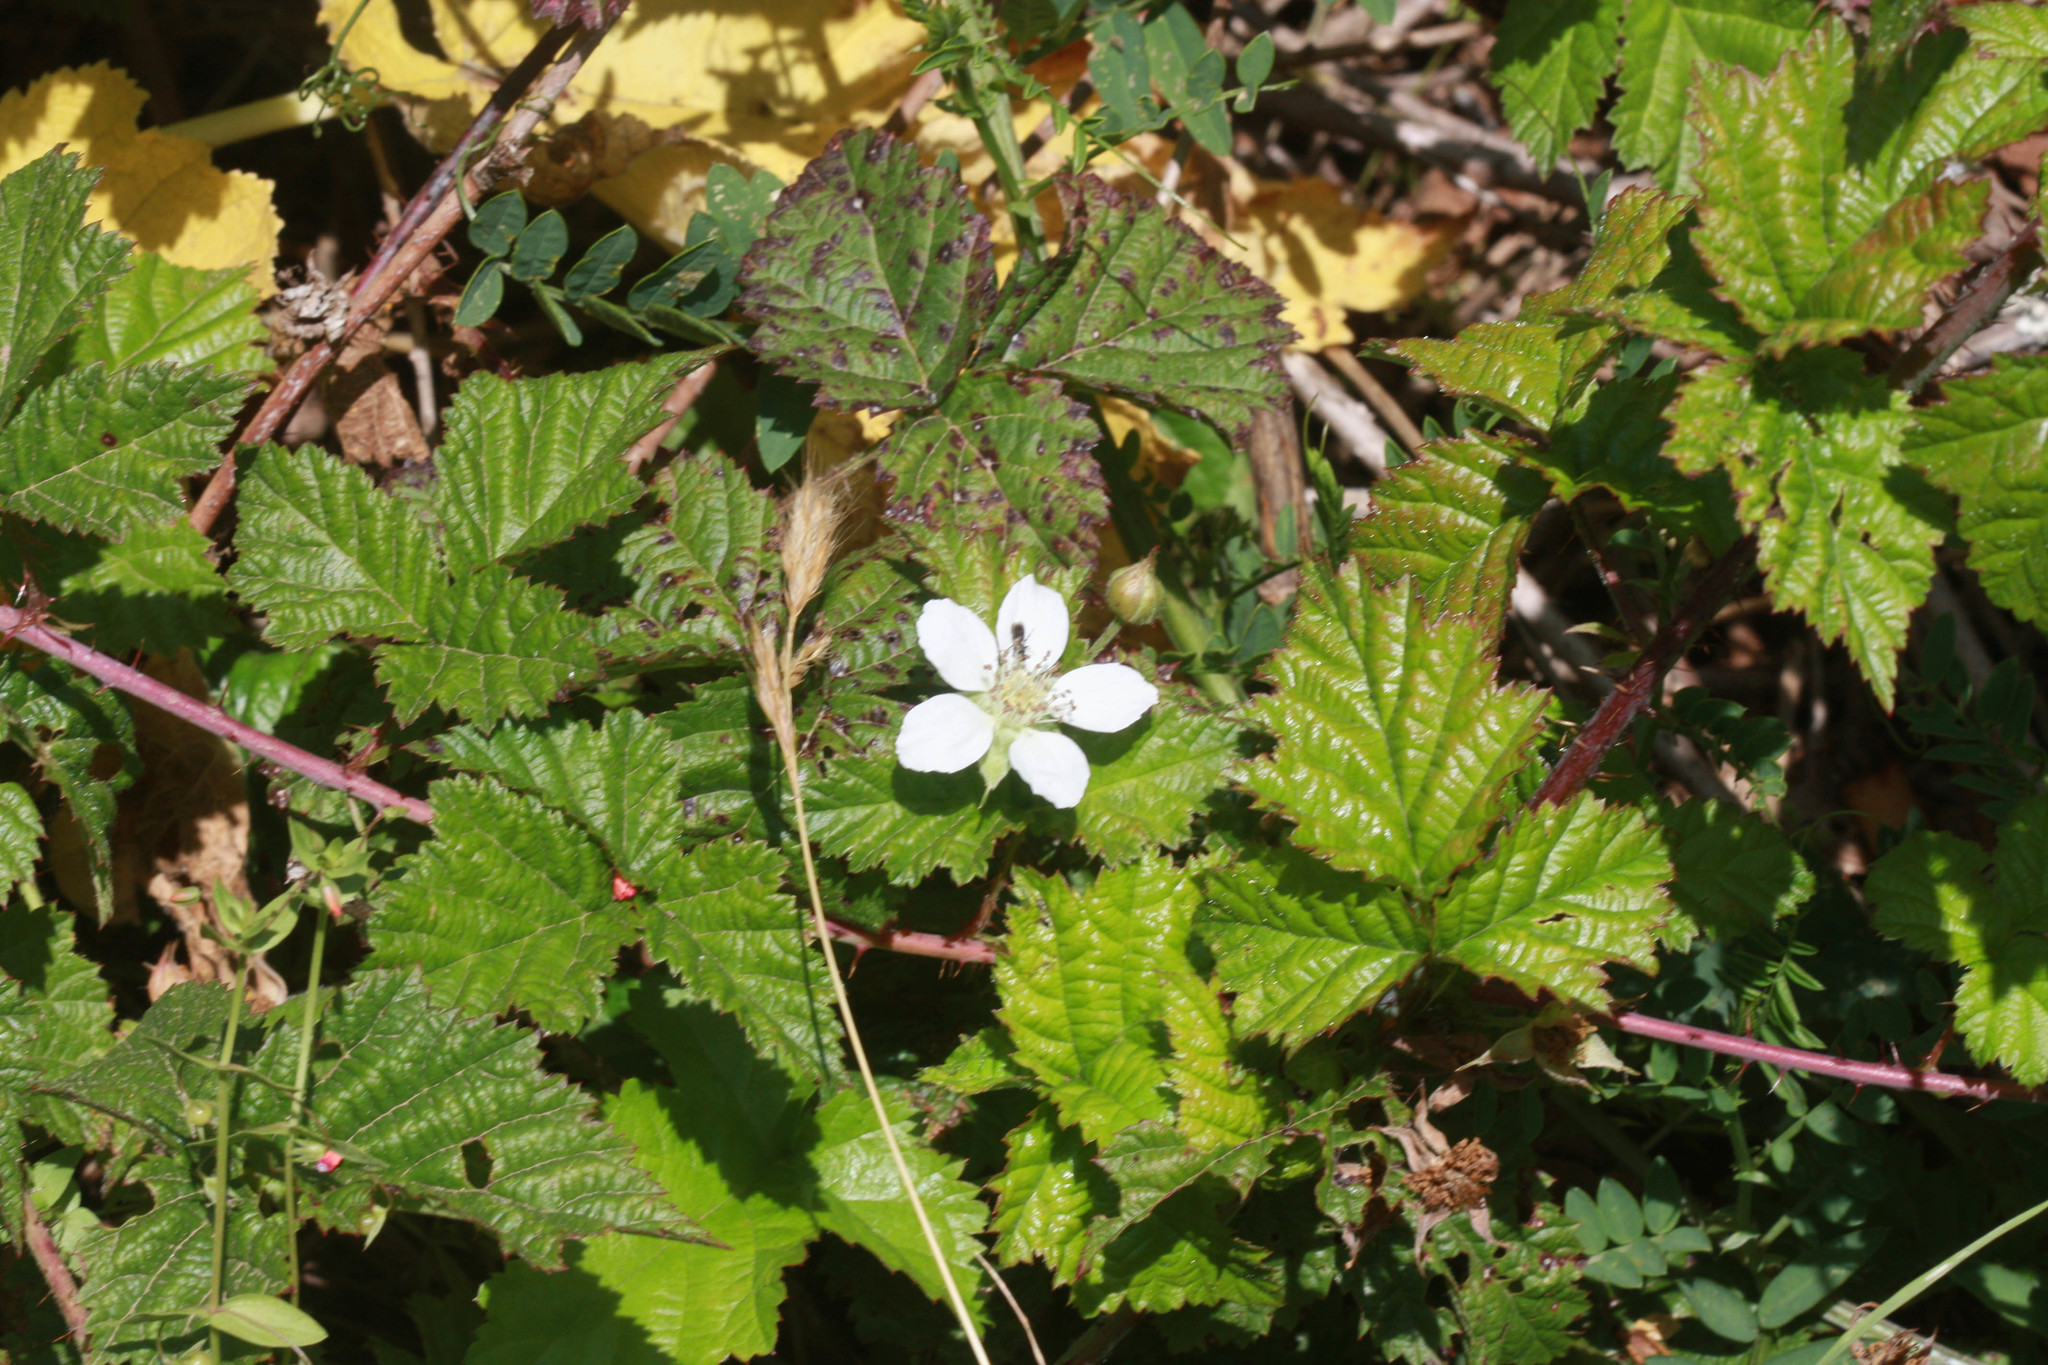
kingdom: Plantae
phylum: Tracheophyta
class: Magnoliopsida
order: Rosales
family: Rosaceae
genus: Rubus
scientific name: Rubus ursinus
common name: Pacific blackberry
